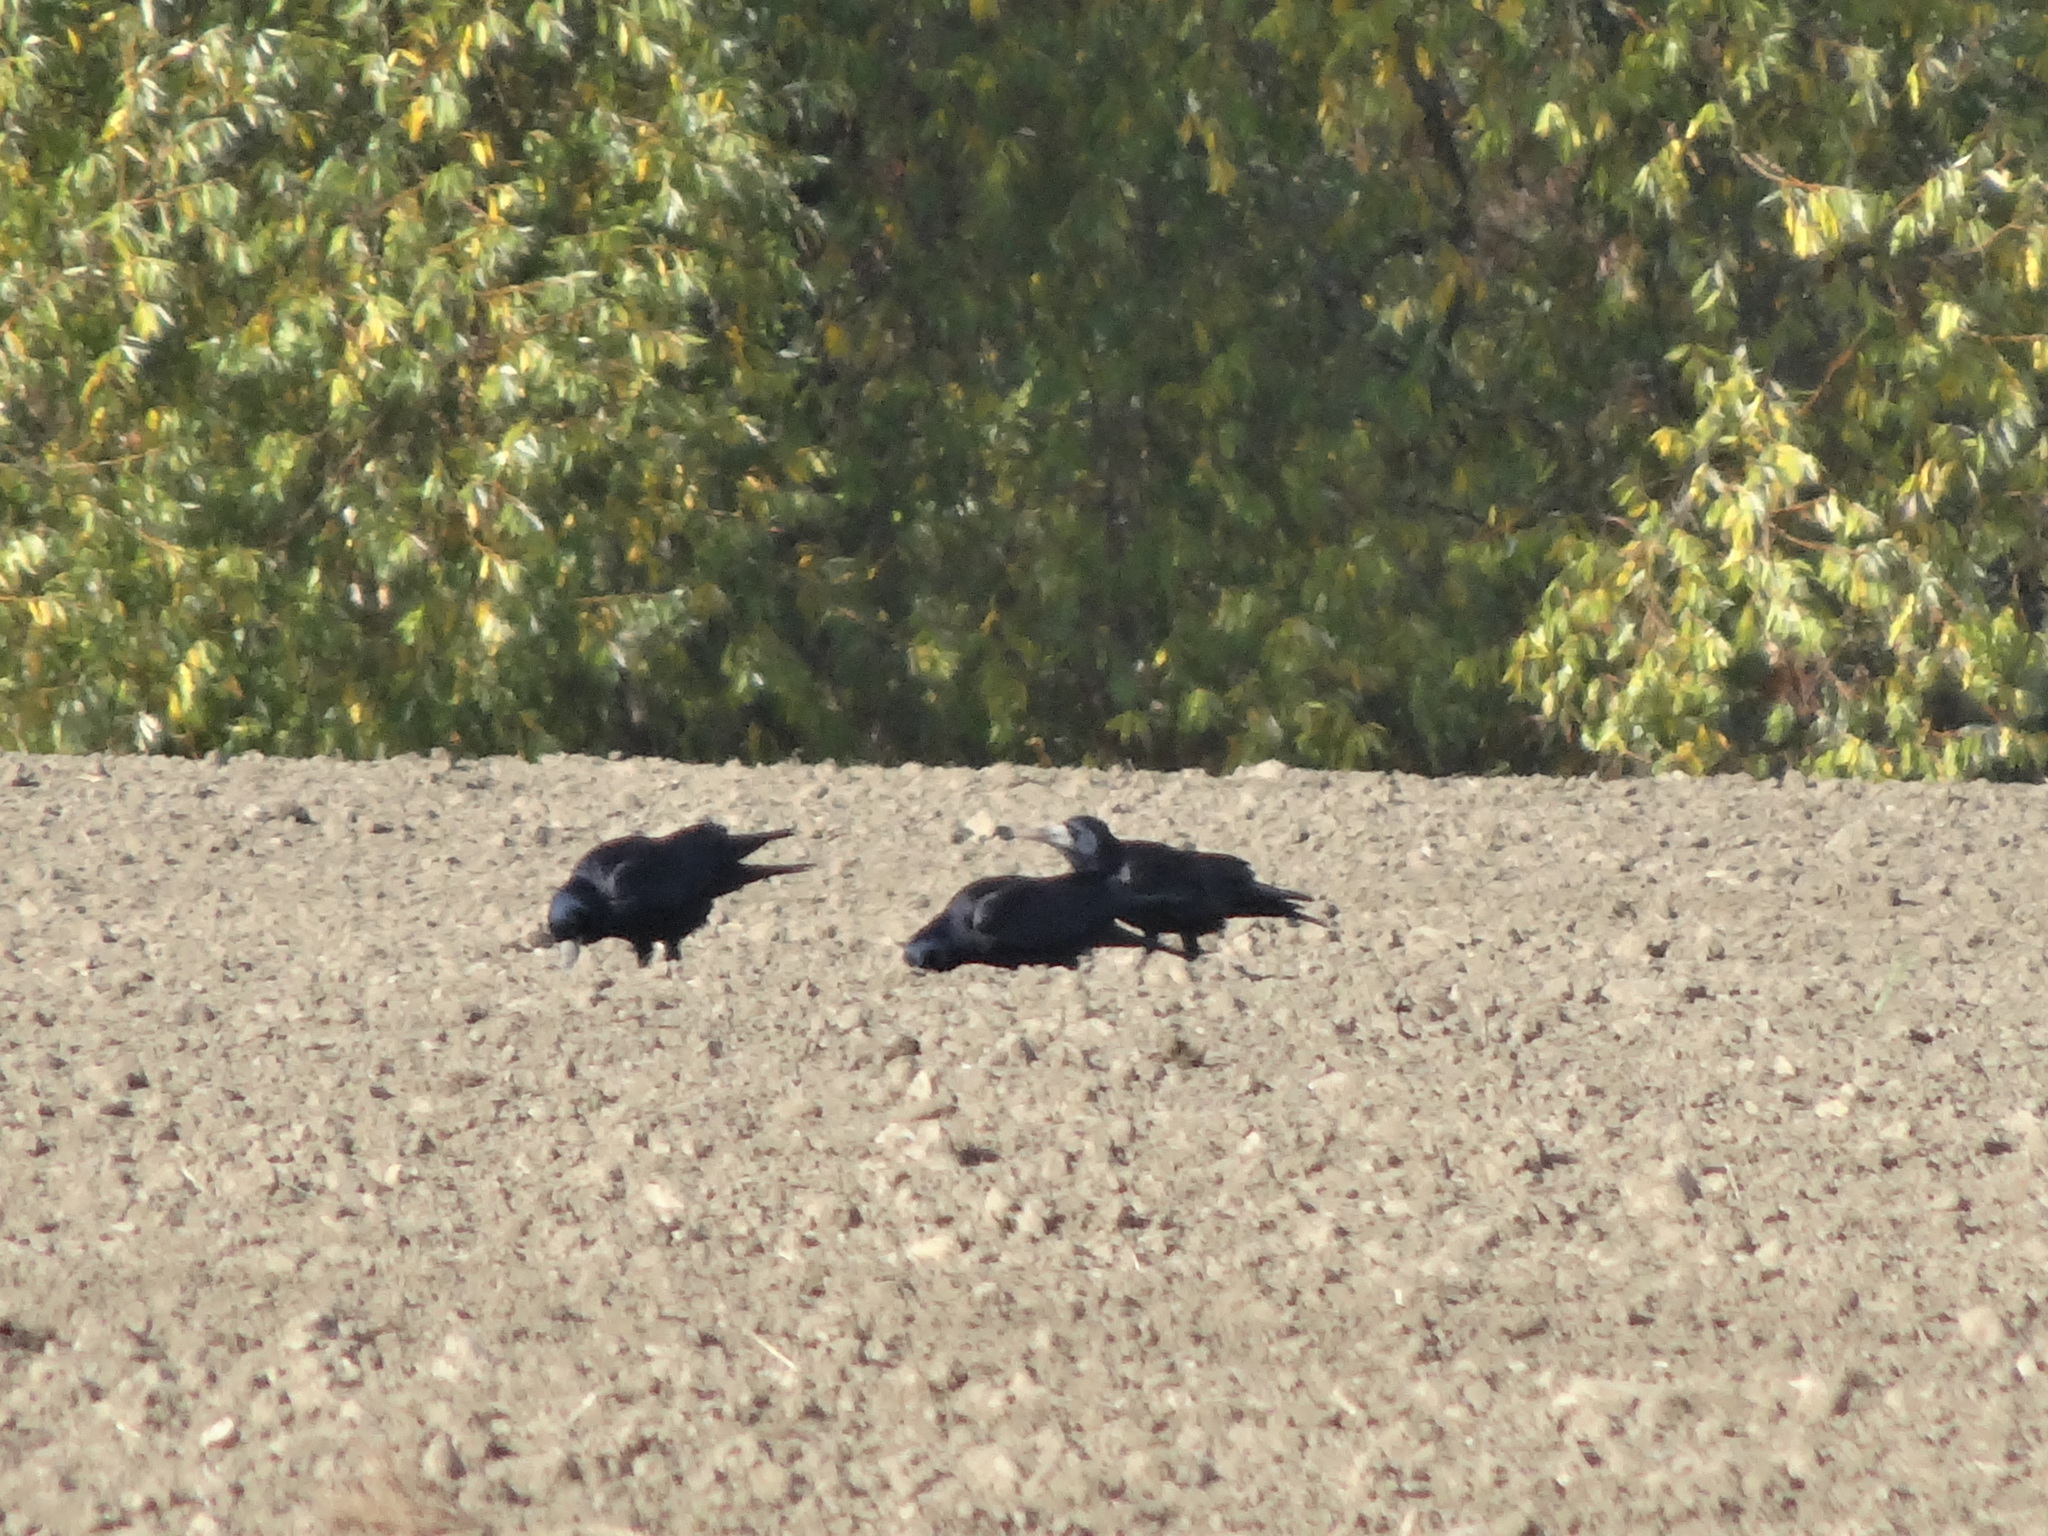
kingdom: Animalia
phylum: Chordata
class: Aves
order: Passeriformes
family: Corvidae
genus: Corvus
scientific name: Corvus frugilegus
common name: Rook
